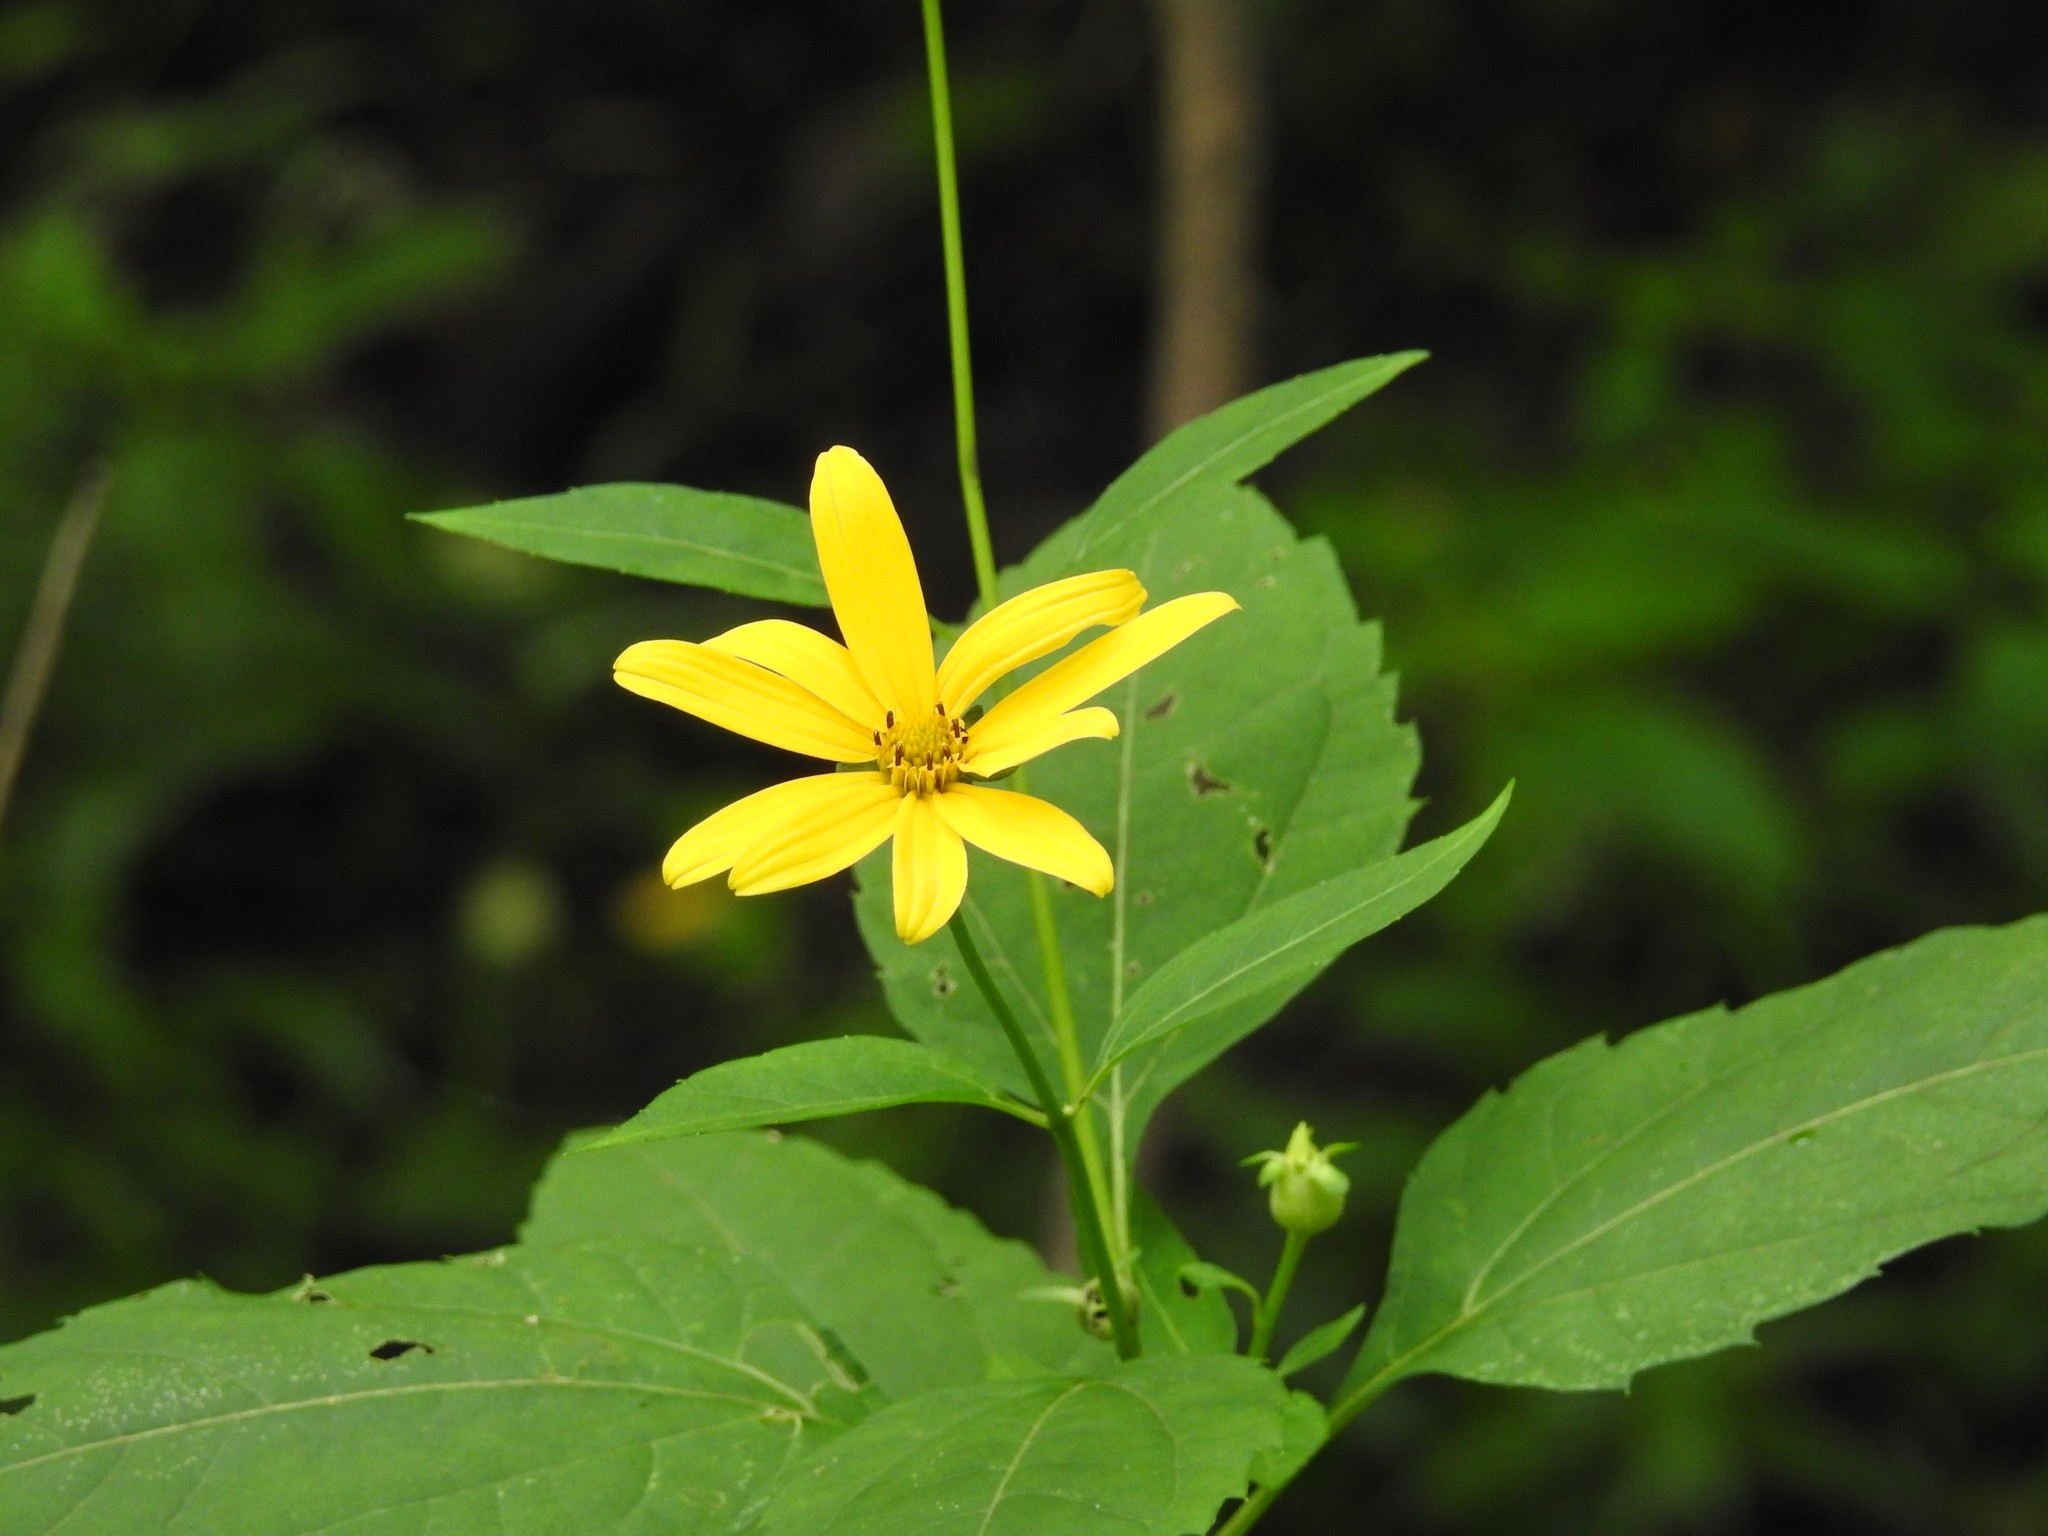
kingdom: Plantae
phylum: Tracheophyta
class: Magnoliopsida
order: Asterales
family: Asteraceae
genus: Helianthus
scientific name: Helianthus divaricatus
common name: Divergent sunflower
